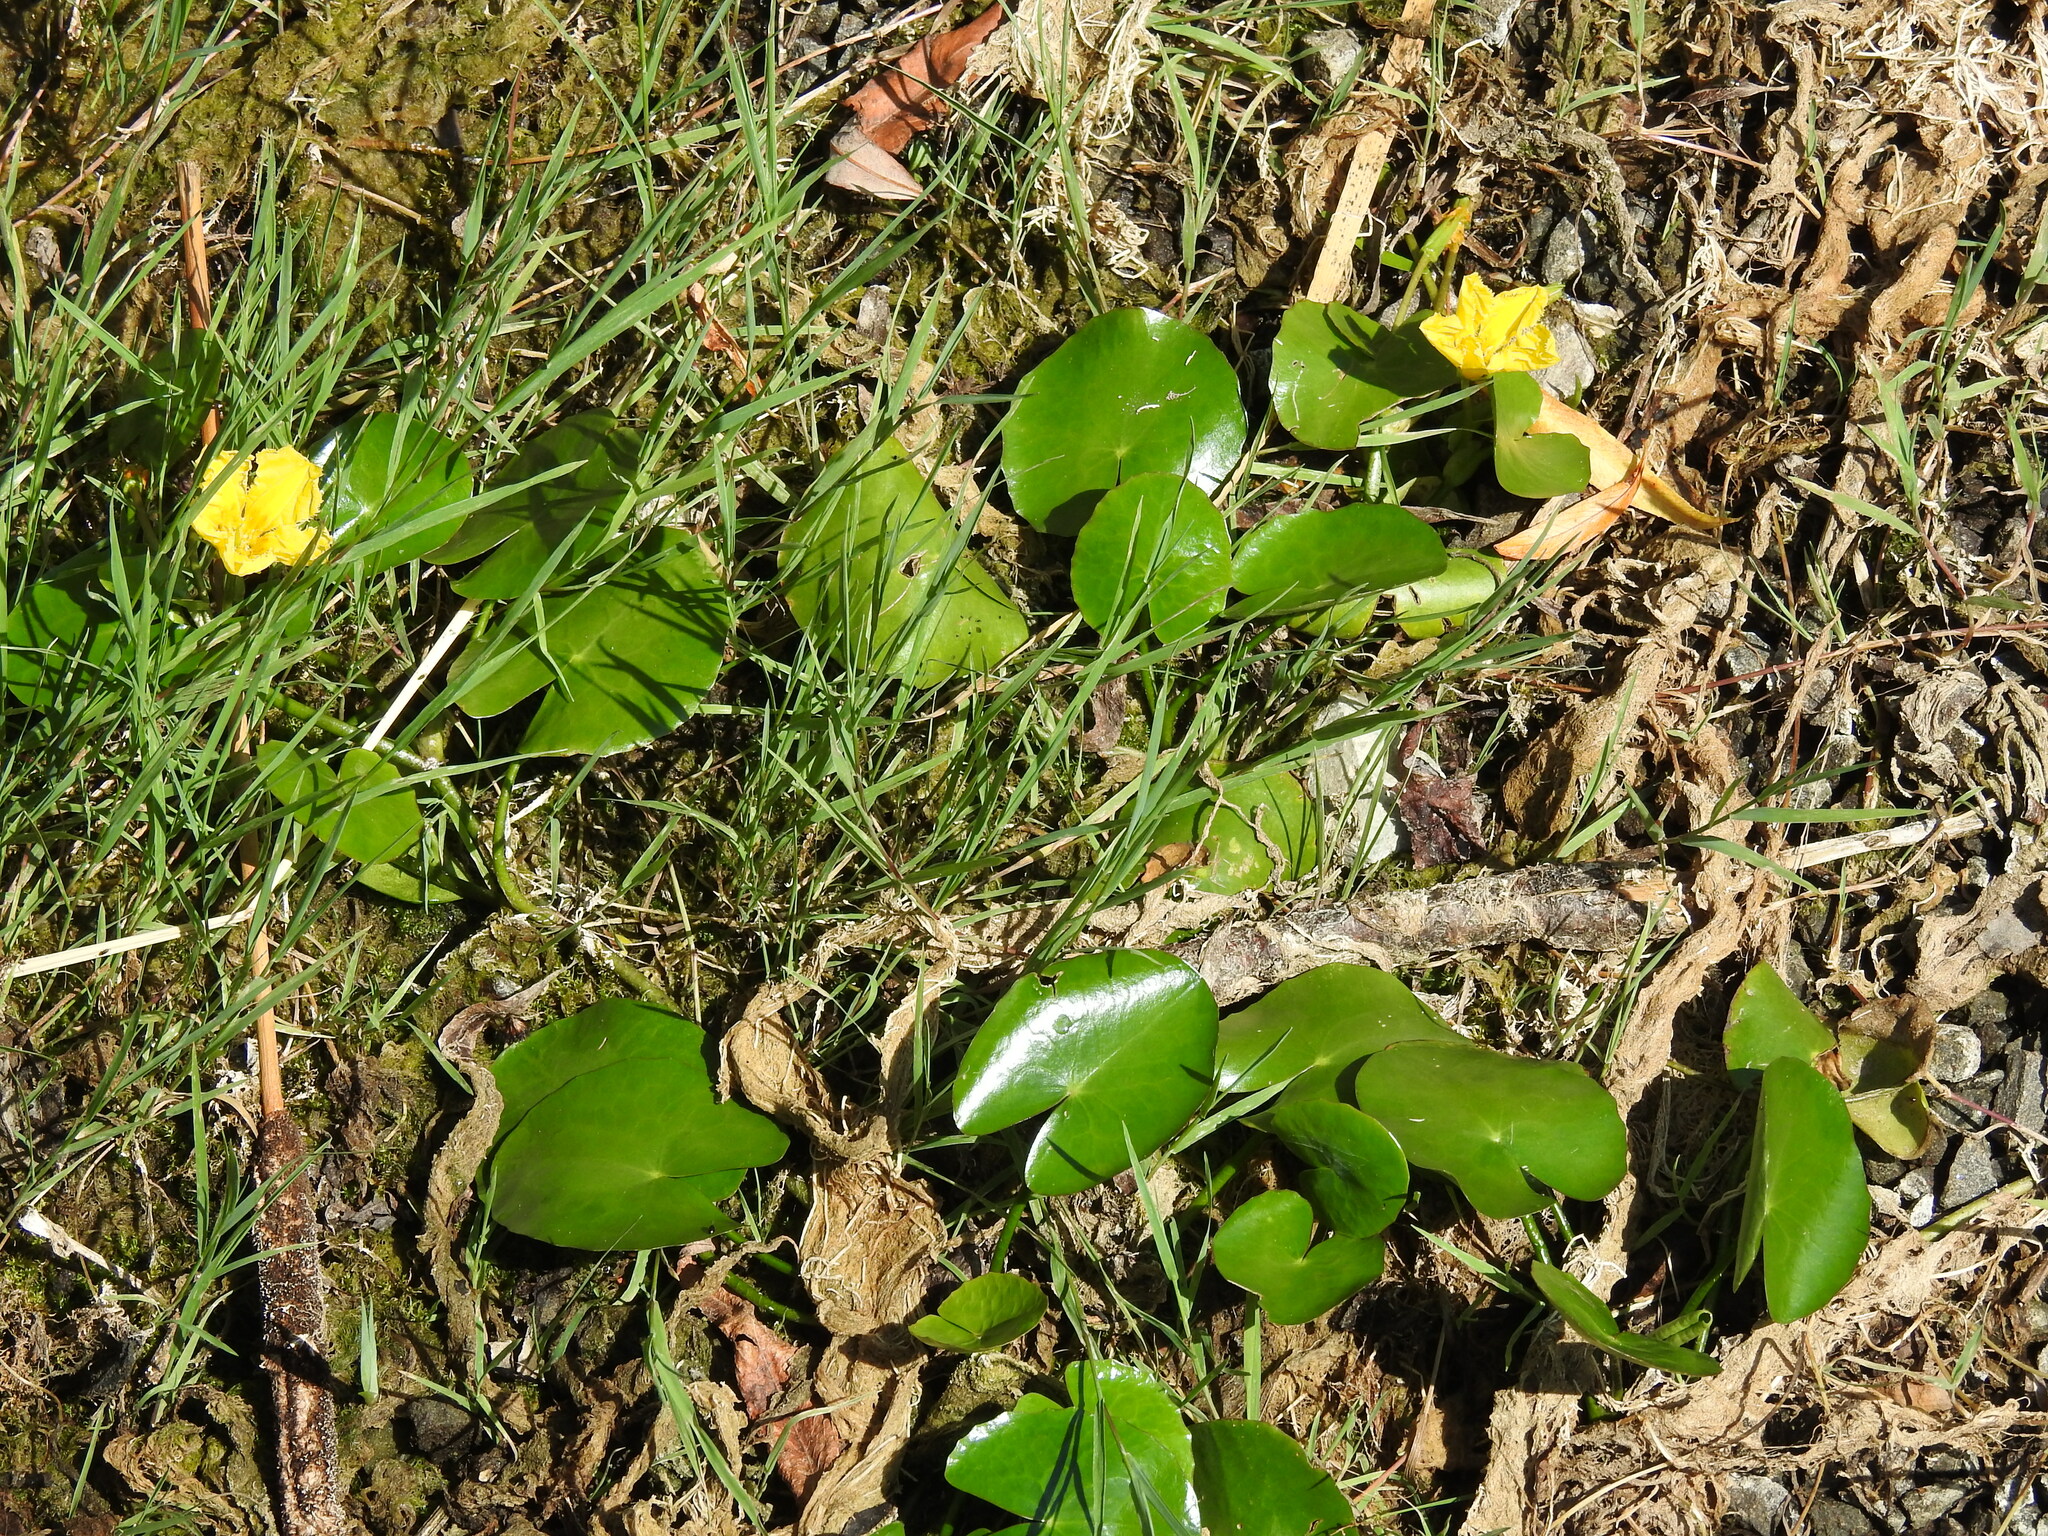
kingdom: Plantae
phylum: Tracheophyta
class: Magnoliopsida
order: Asterales
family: Menyanthaceae
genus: Nymphoides
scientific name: Nymphoides peltata
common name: Fringed water-lily
